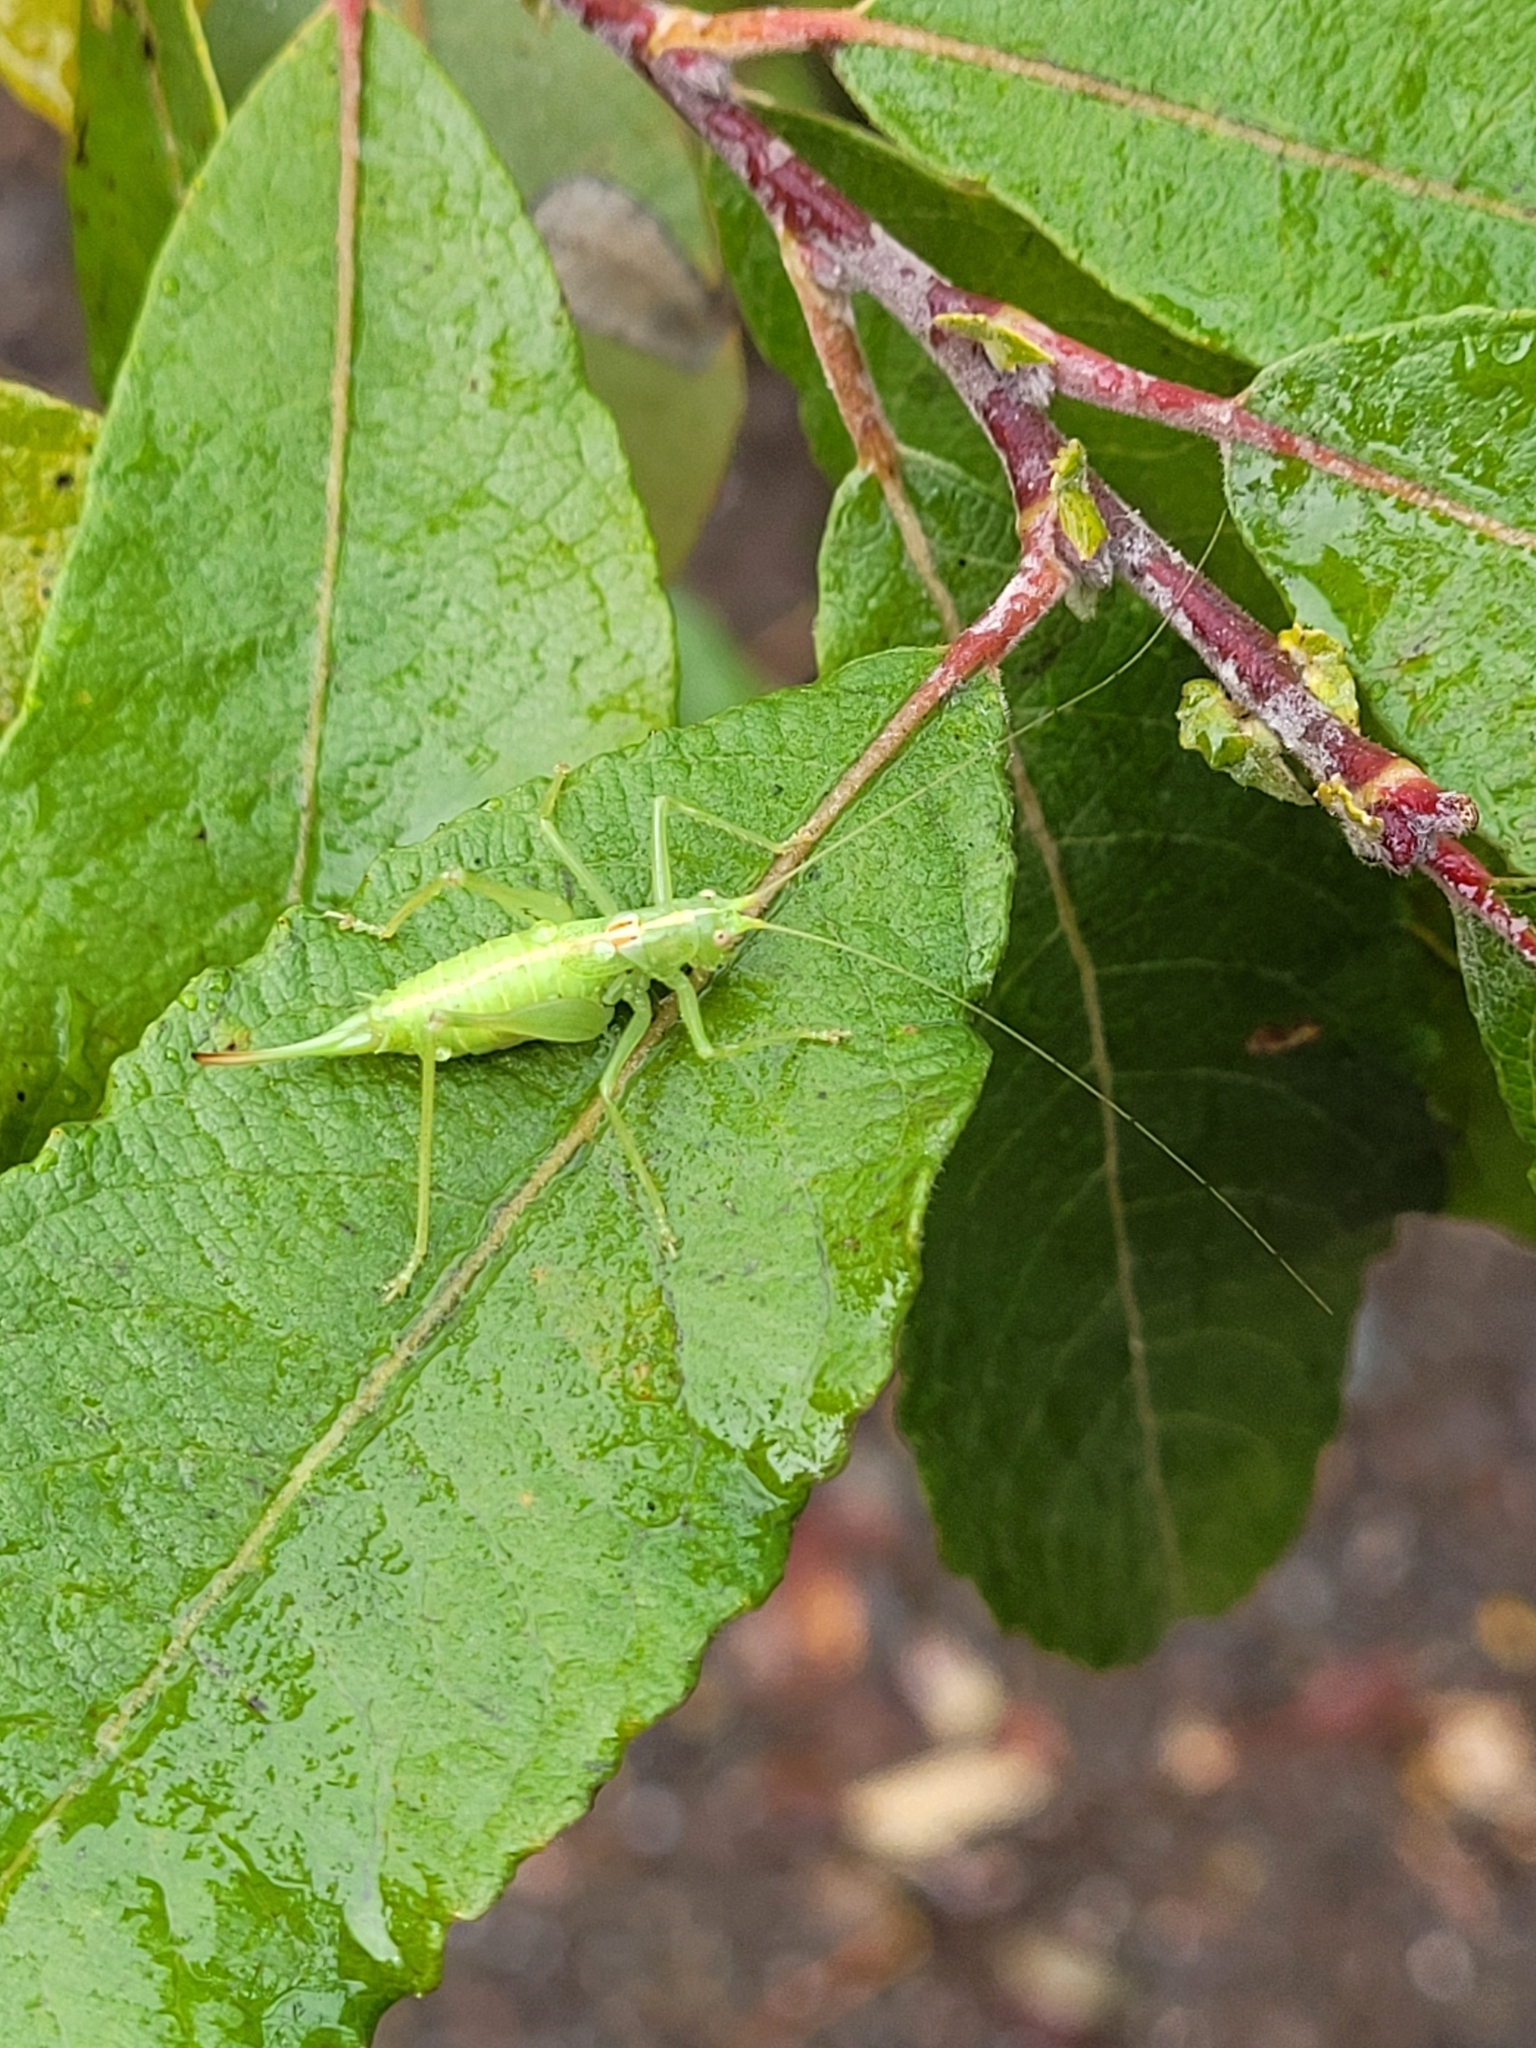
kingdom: Animalia
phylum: Arthropoda
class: Insecta
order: Orthoptera
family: Tettigoniidae
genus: Meconema
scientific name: Meconema meridionale
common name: Southern oak bush-cricket
